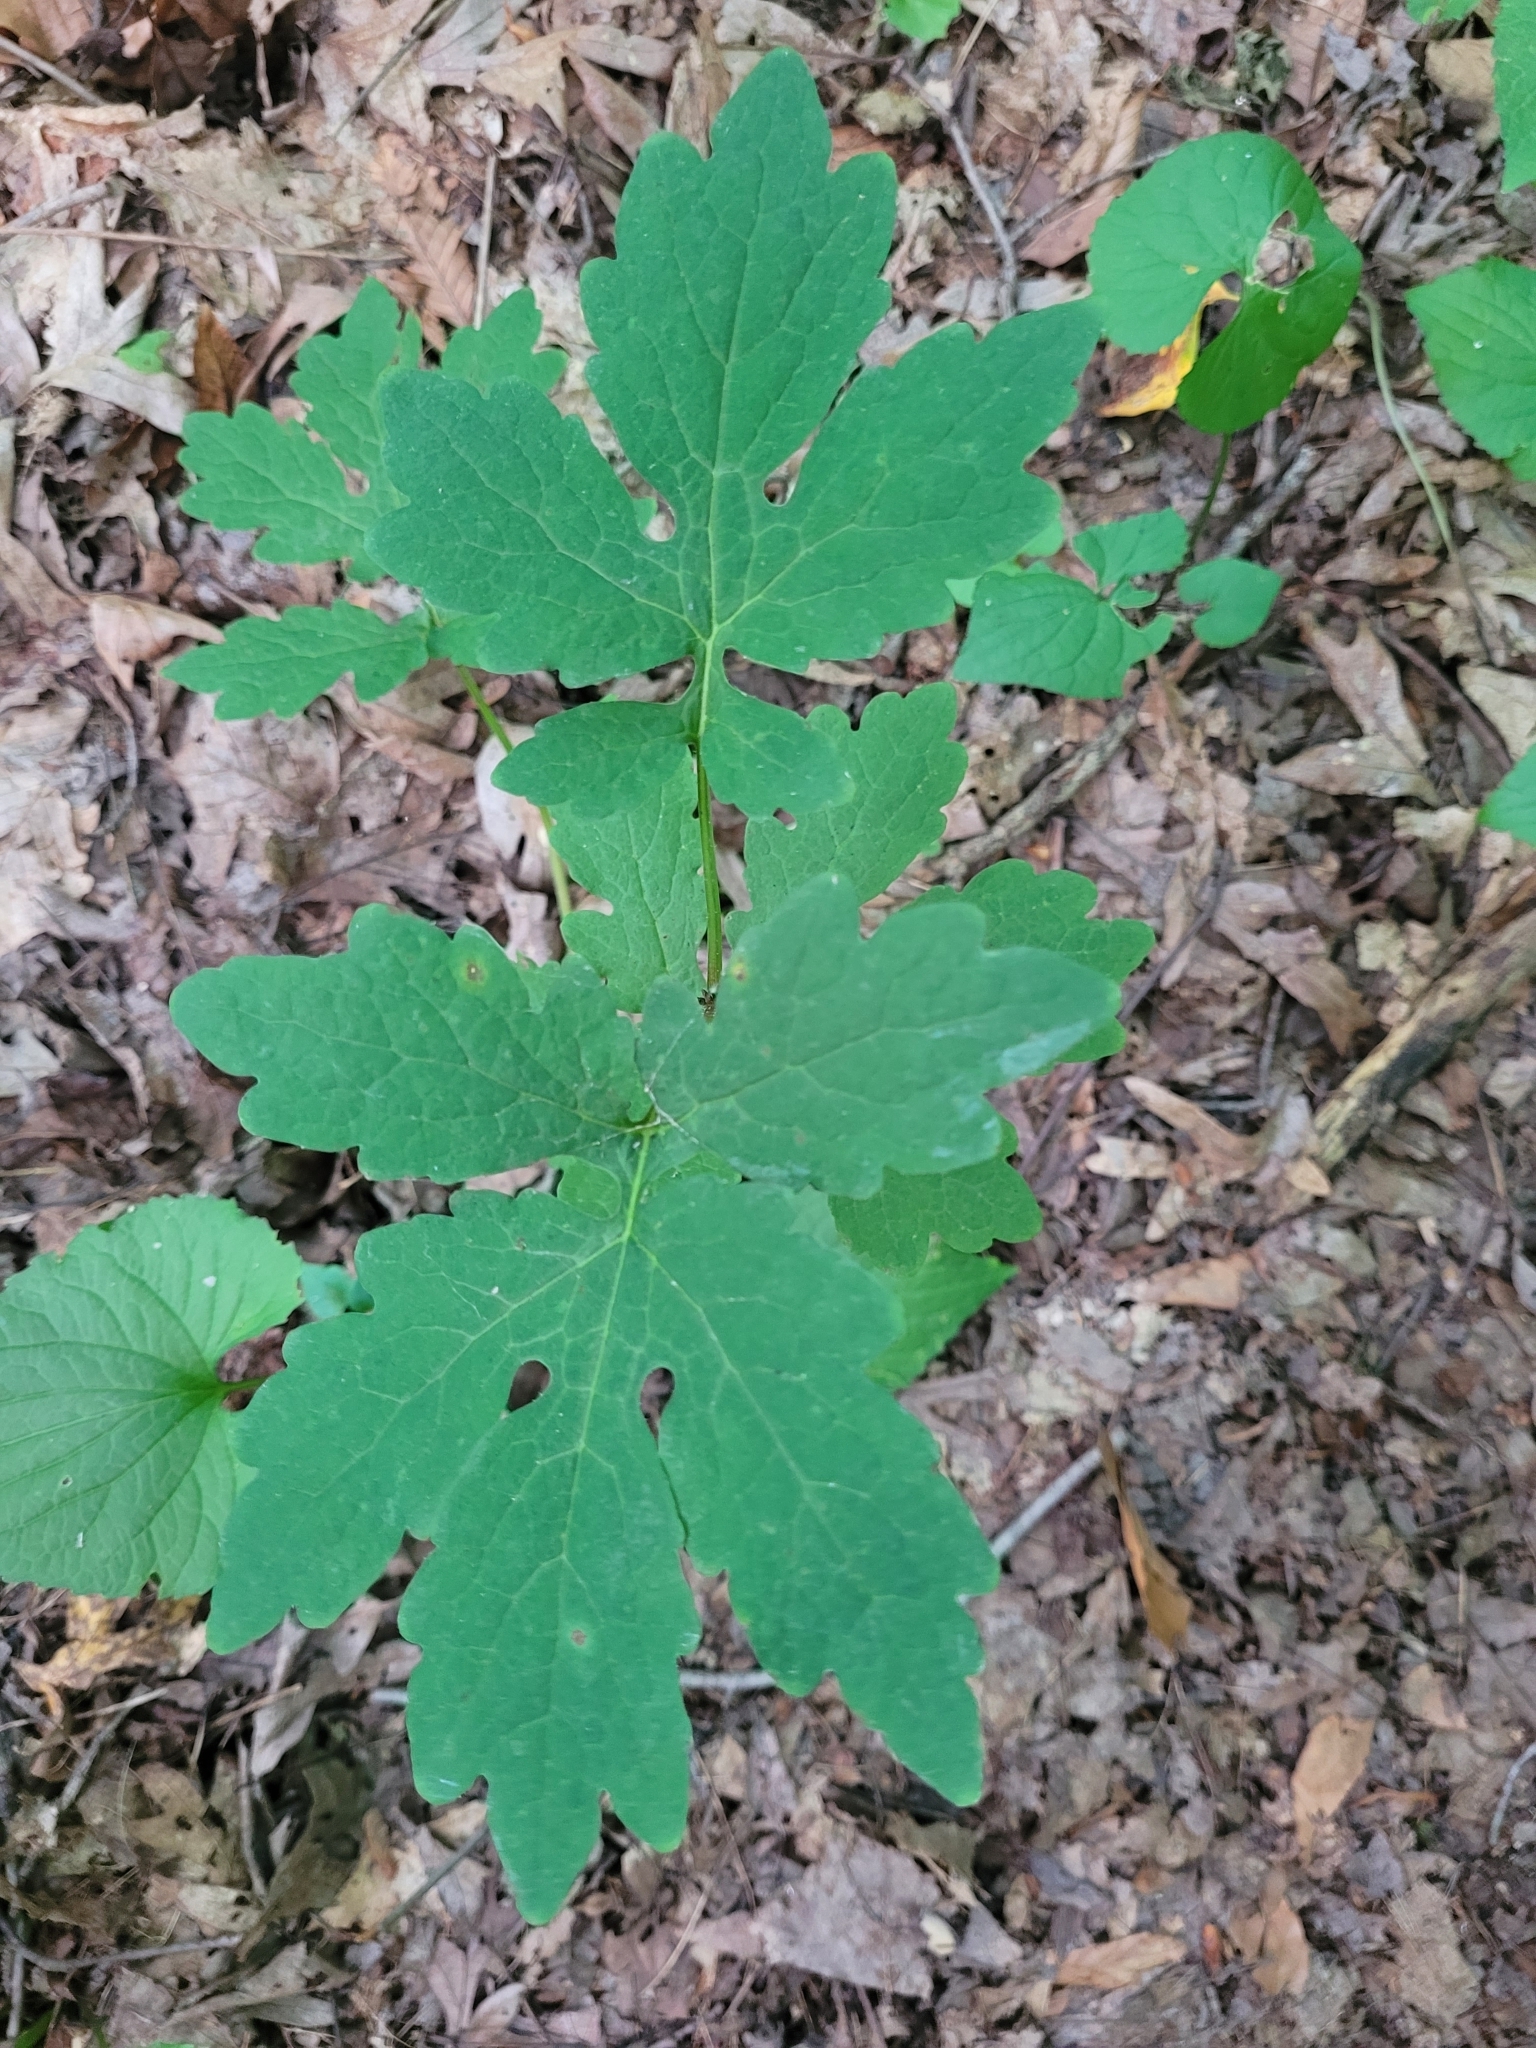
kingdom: Plantae
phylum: Tracheophyta
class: Magnoliopsida
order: Ranunculales
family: Papaveraceae
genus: Stylophorum
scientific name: Stylophorum diphyllum
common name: Celandine poppy
